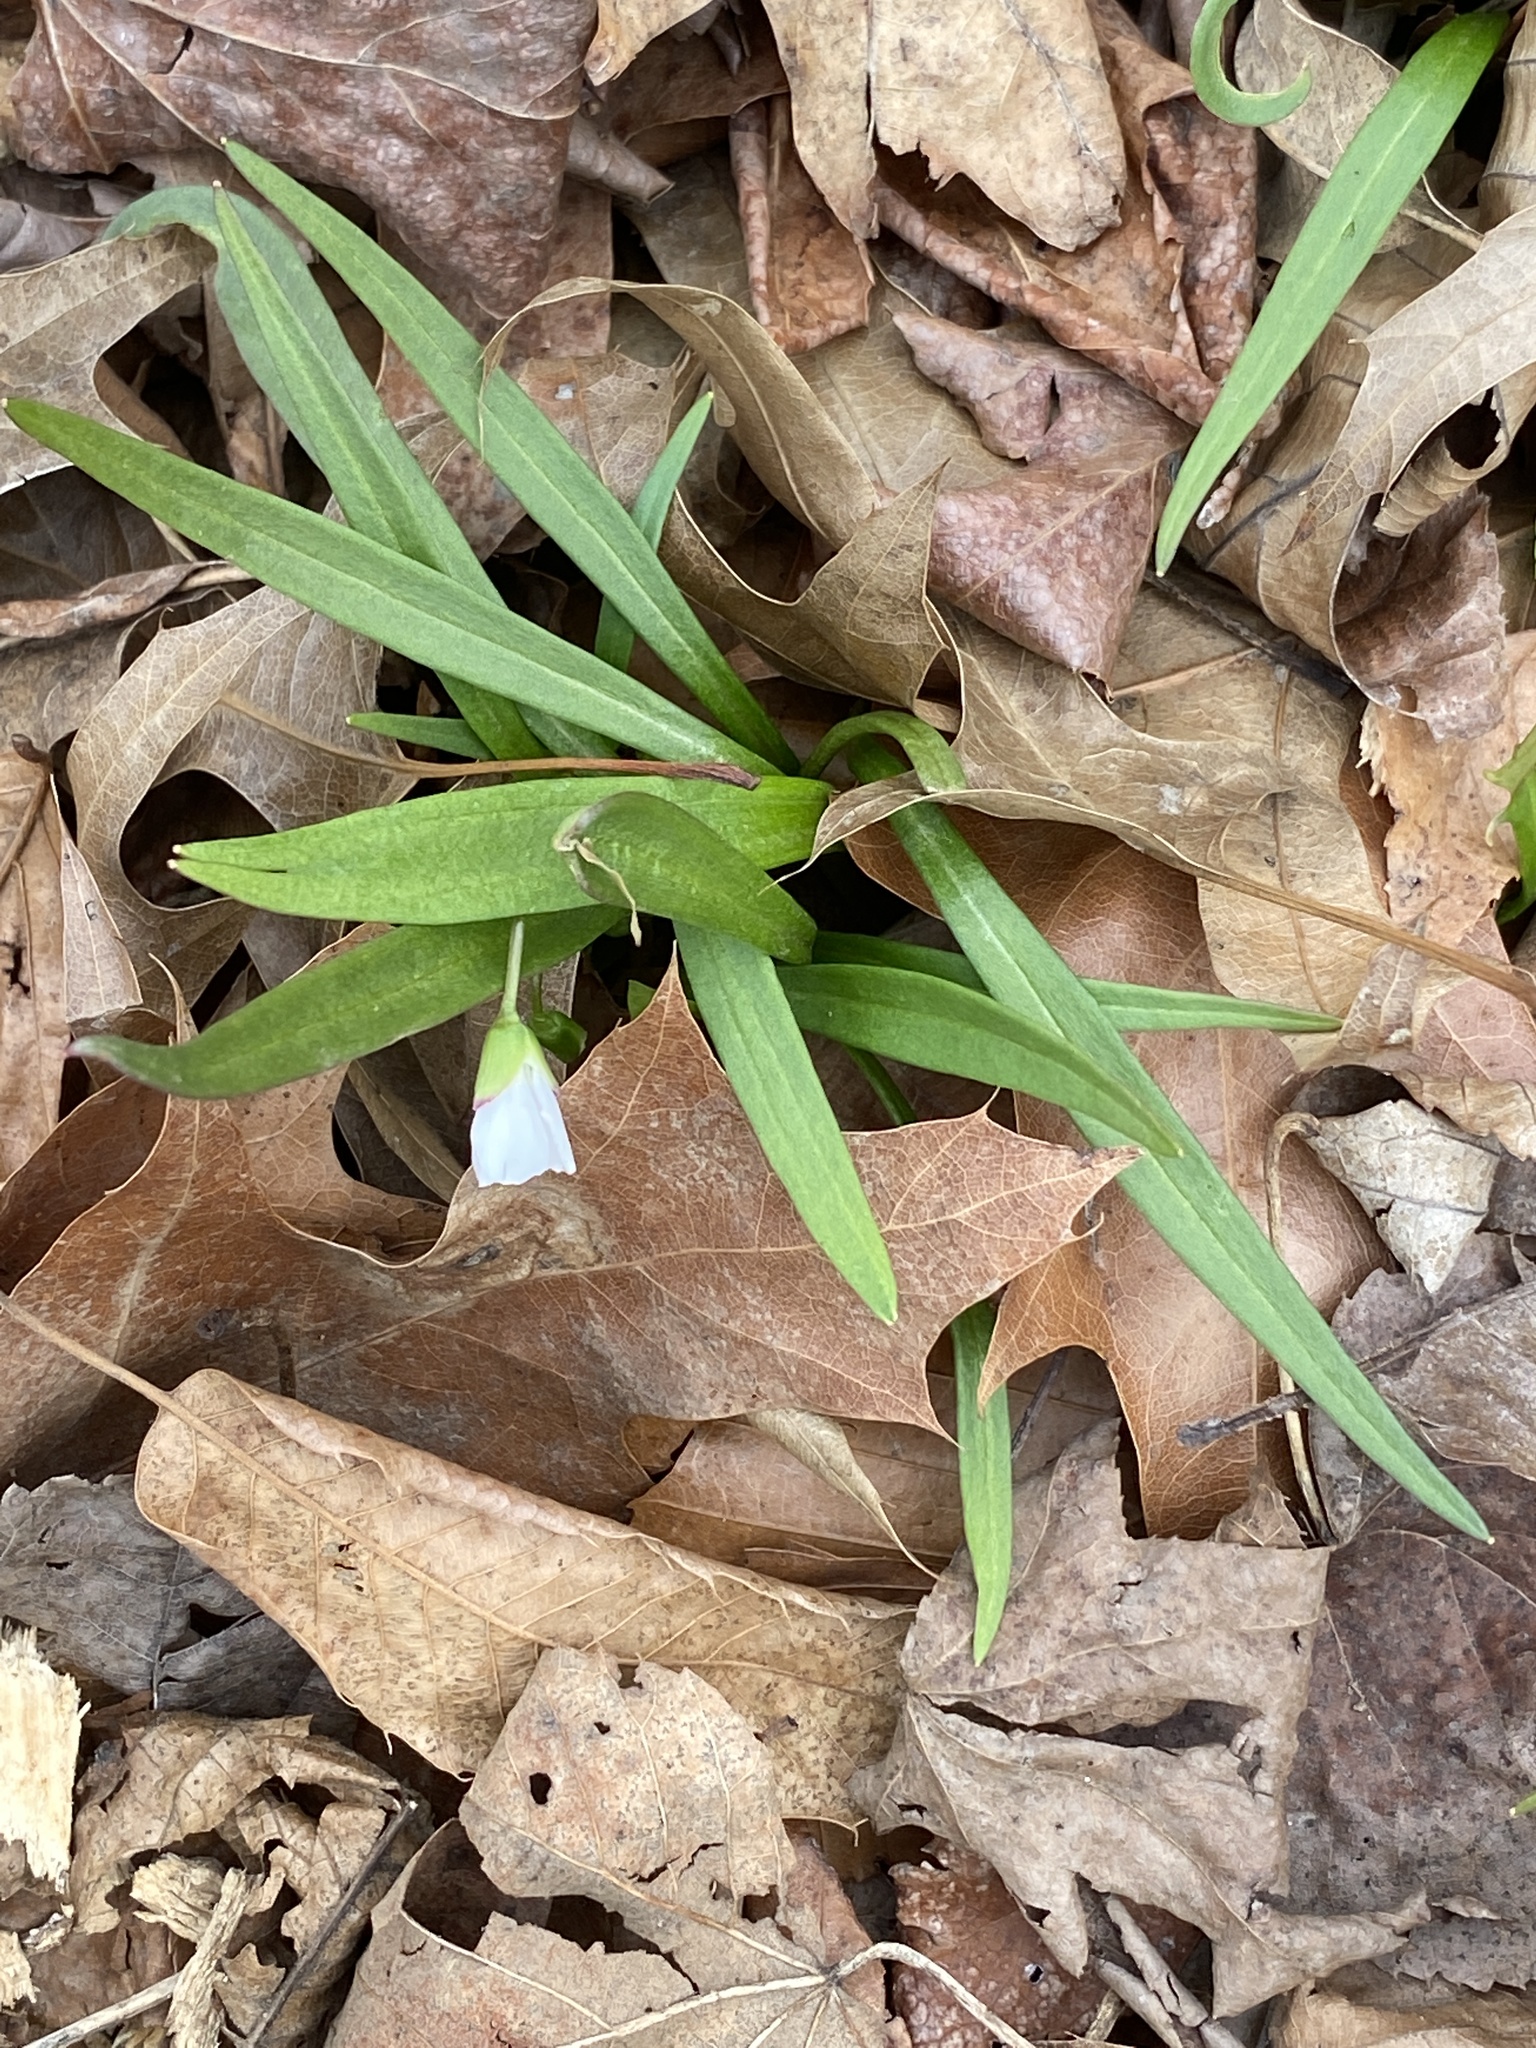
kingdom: Plantae
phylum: Tracheophyta
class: Magnoliopsida
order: Caryophyllales
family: Montiaceae
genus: Claytonia
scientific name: Claytonia virginica
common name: Virginia springbeauty
